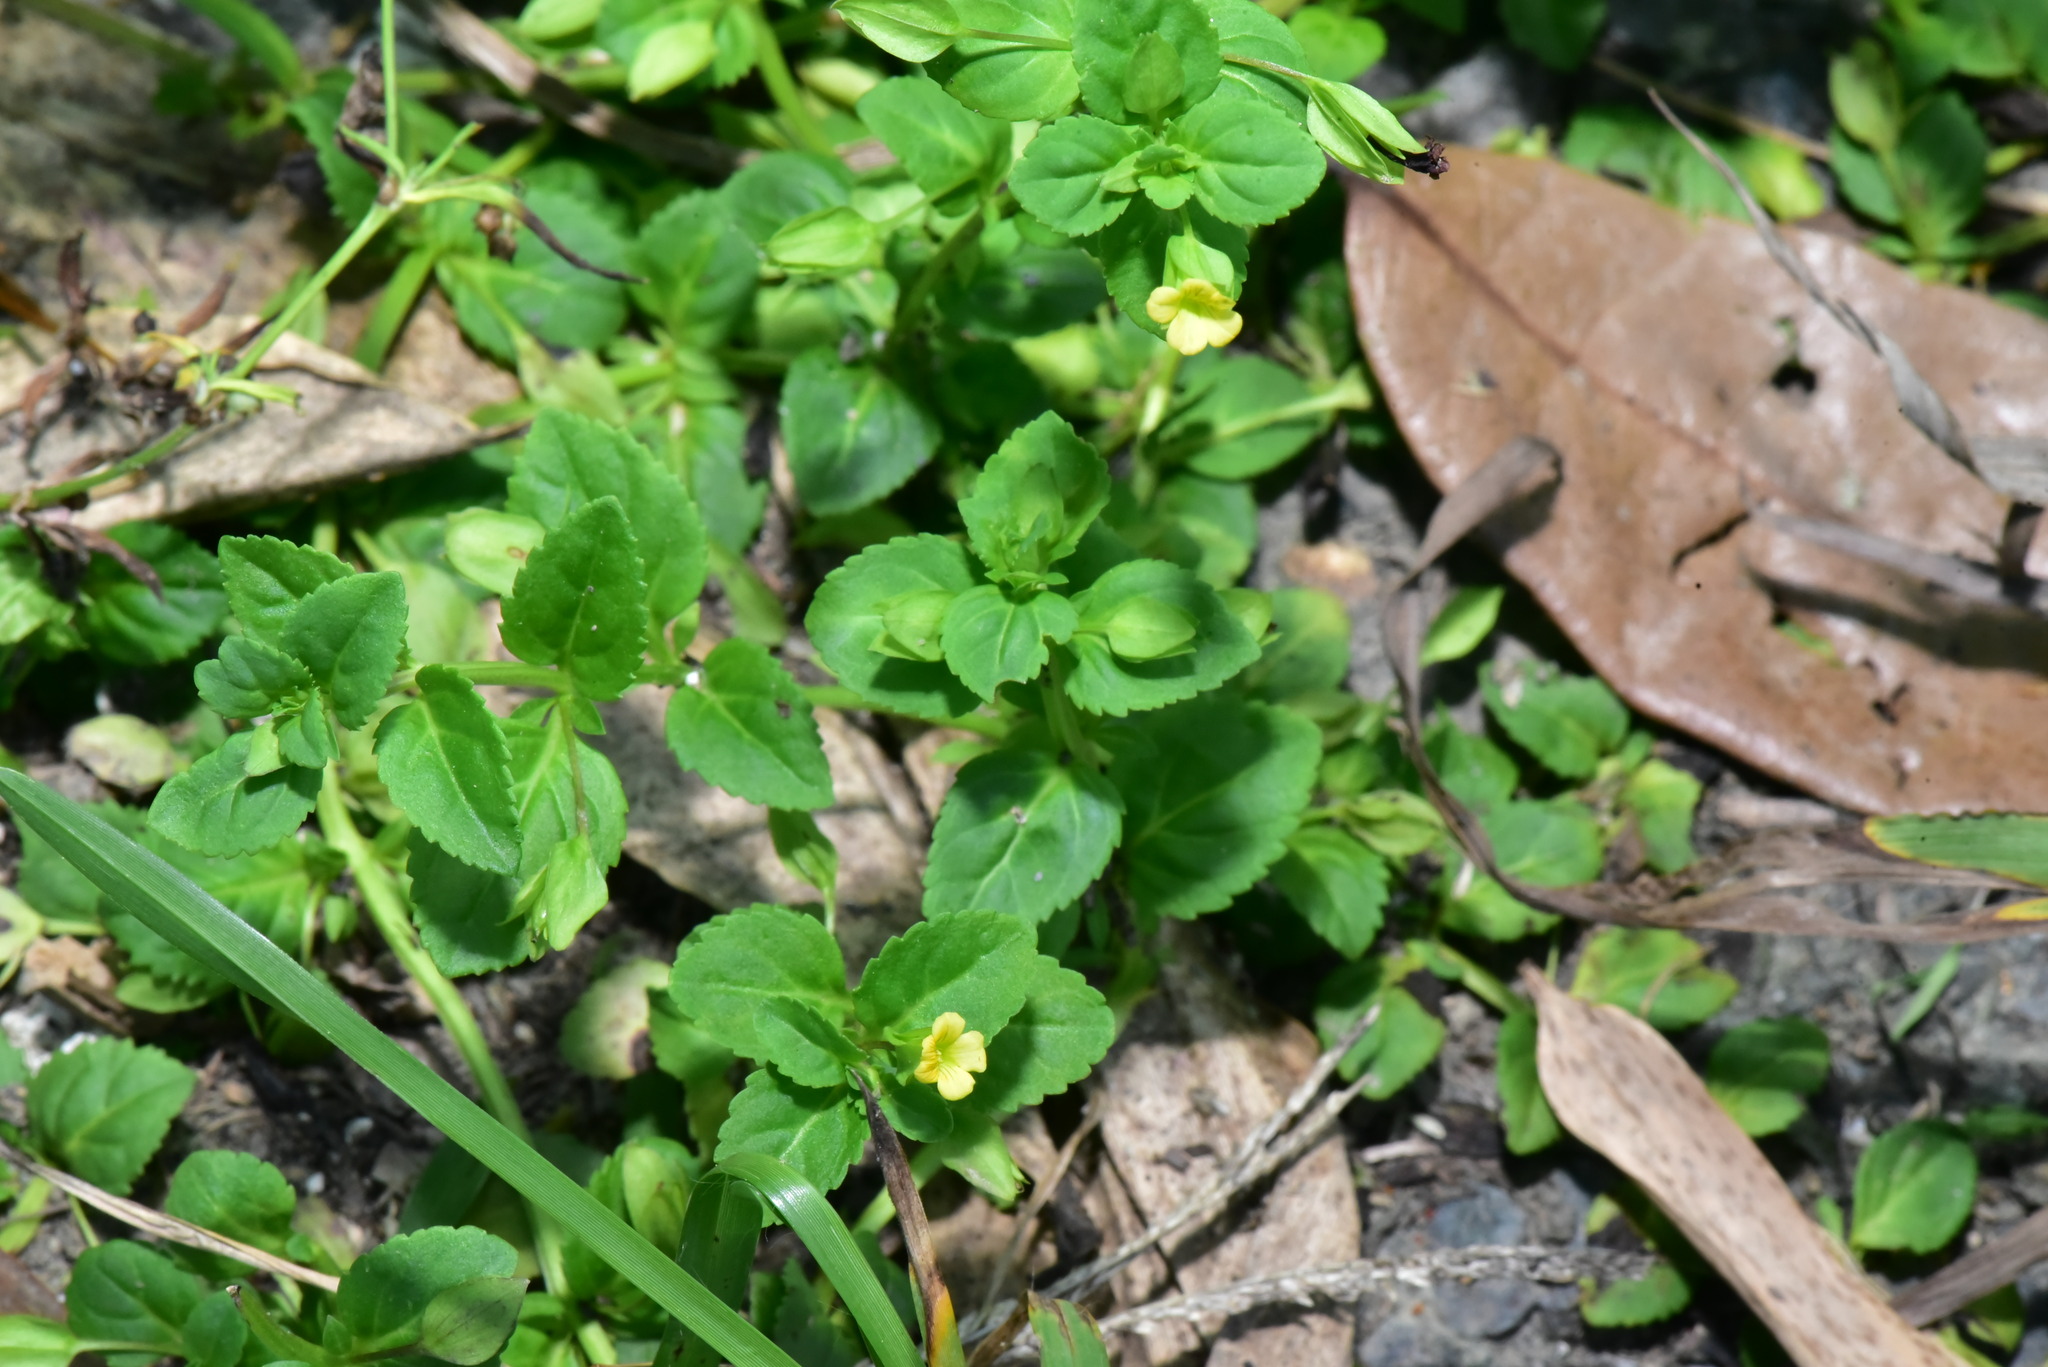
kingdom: Plantae
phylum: Tracheophyta
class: Magnoliopsida
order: Lamiales
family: Plantaginaceae
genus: Mecardonia
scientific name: Mecardonia procumbens
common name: Baby jump-up
